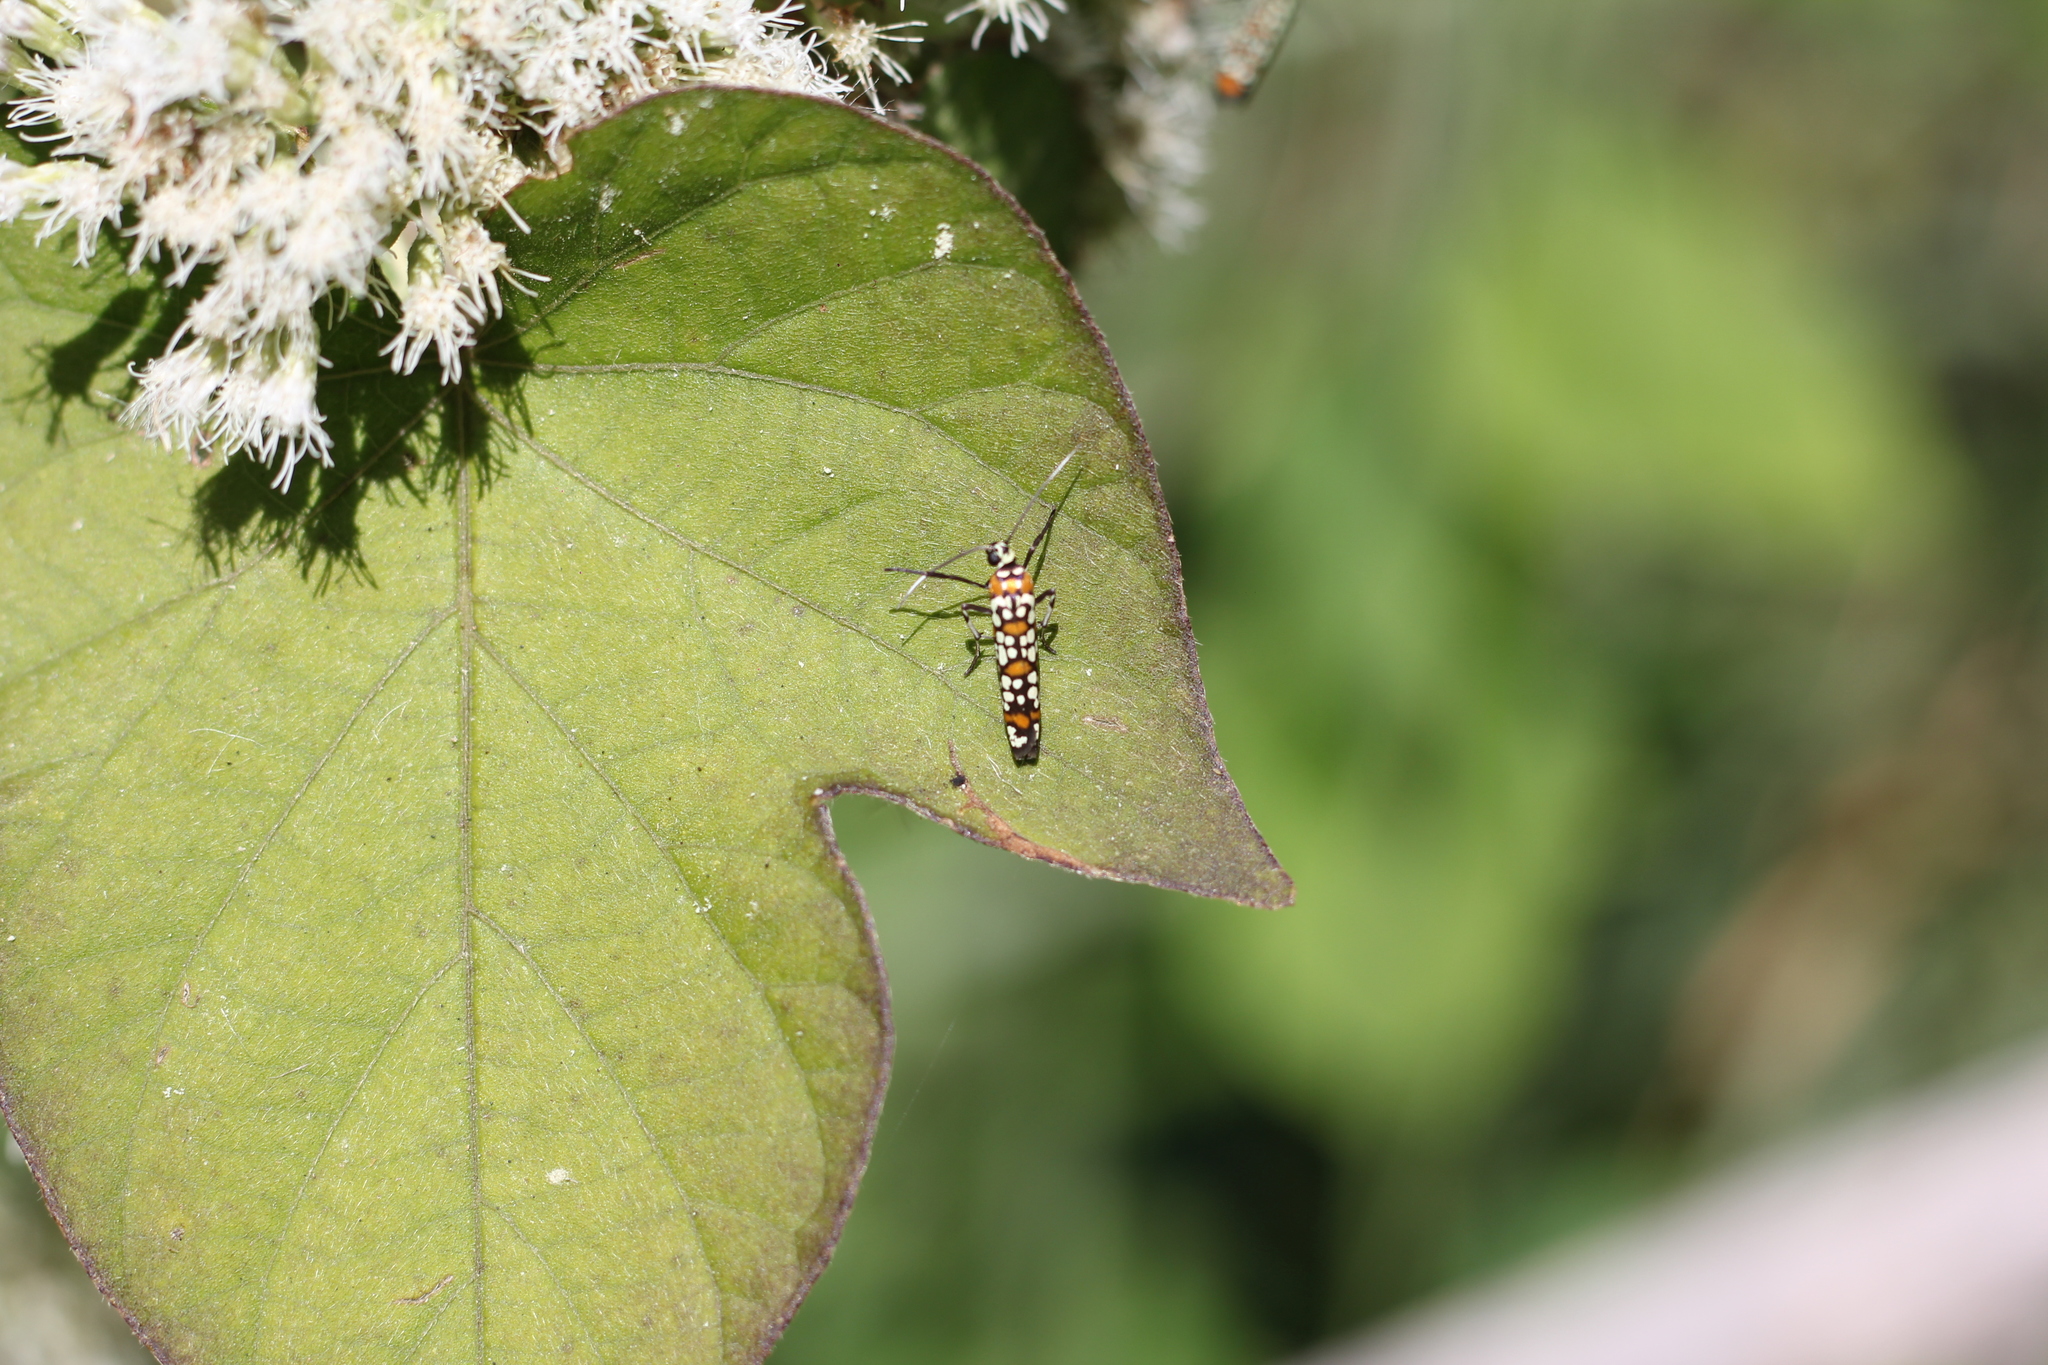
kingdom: Animalia
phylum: Arthropoda
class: Insecta
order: Lepidoptera
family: Attevidae
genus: Atteva
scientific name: Atteva punctella
